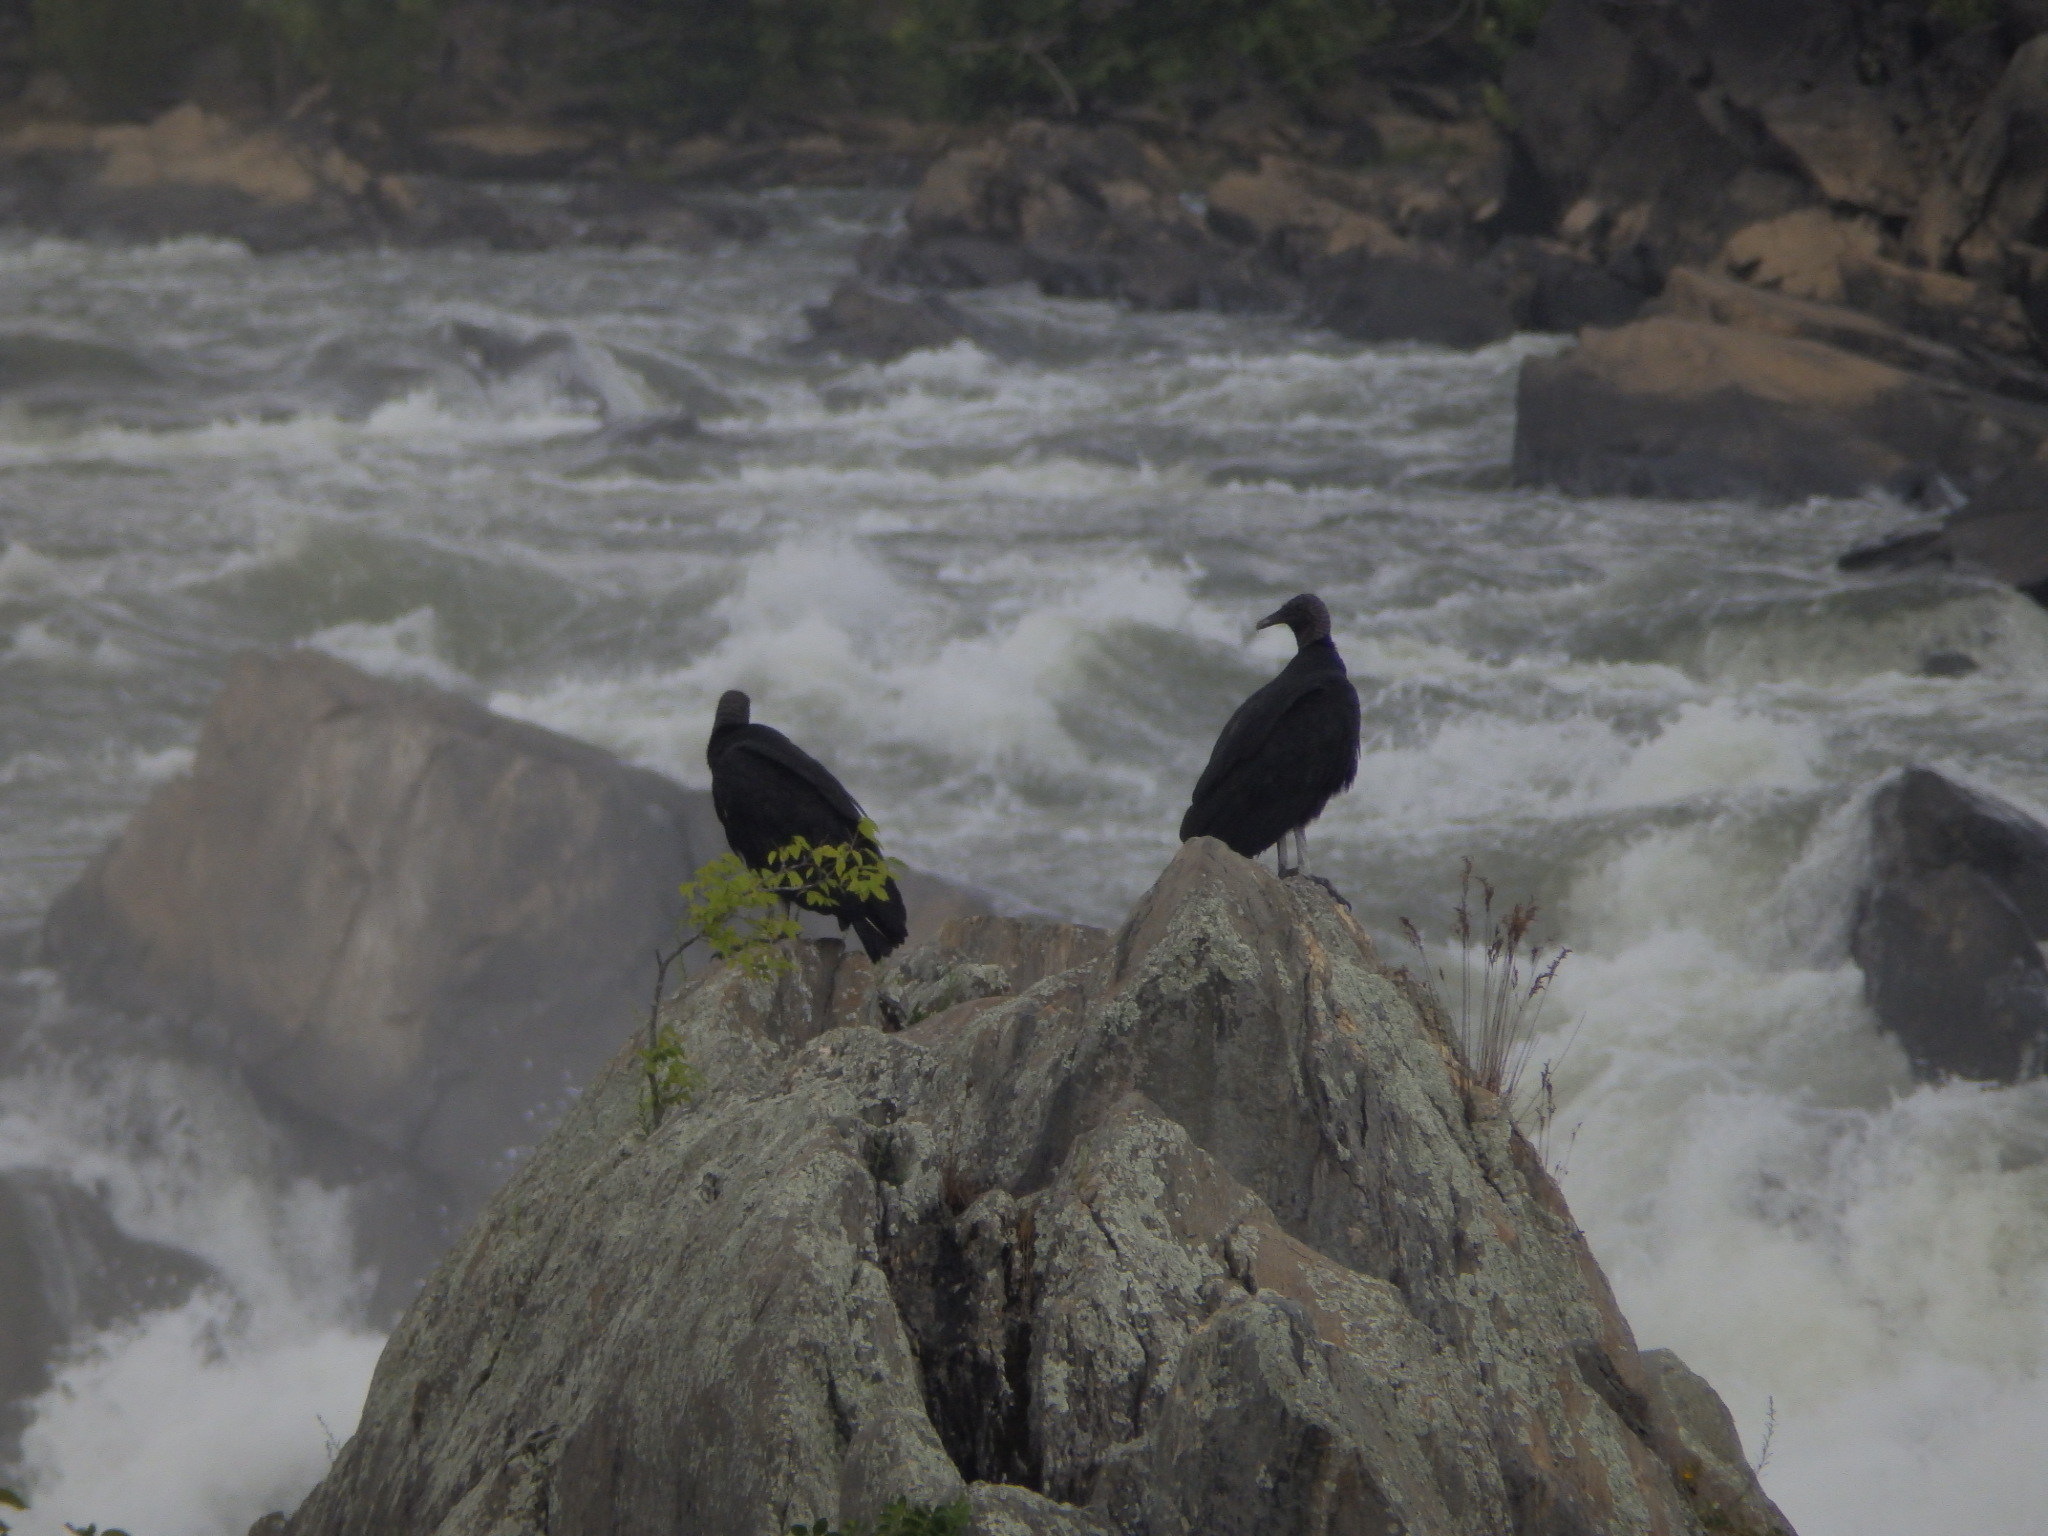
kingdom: Animalia
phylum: Chordata
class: Aves
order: Accipitriformes
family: Cathartidae
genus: Coragyps
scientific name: Coragyps atratus
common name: Black vulture
